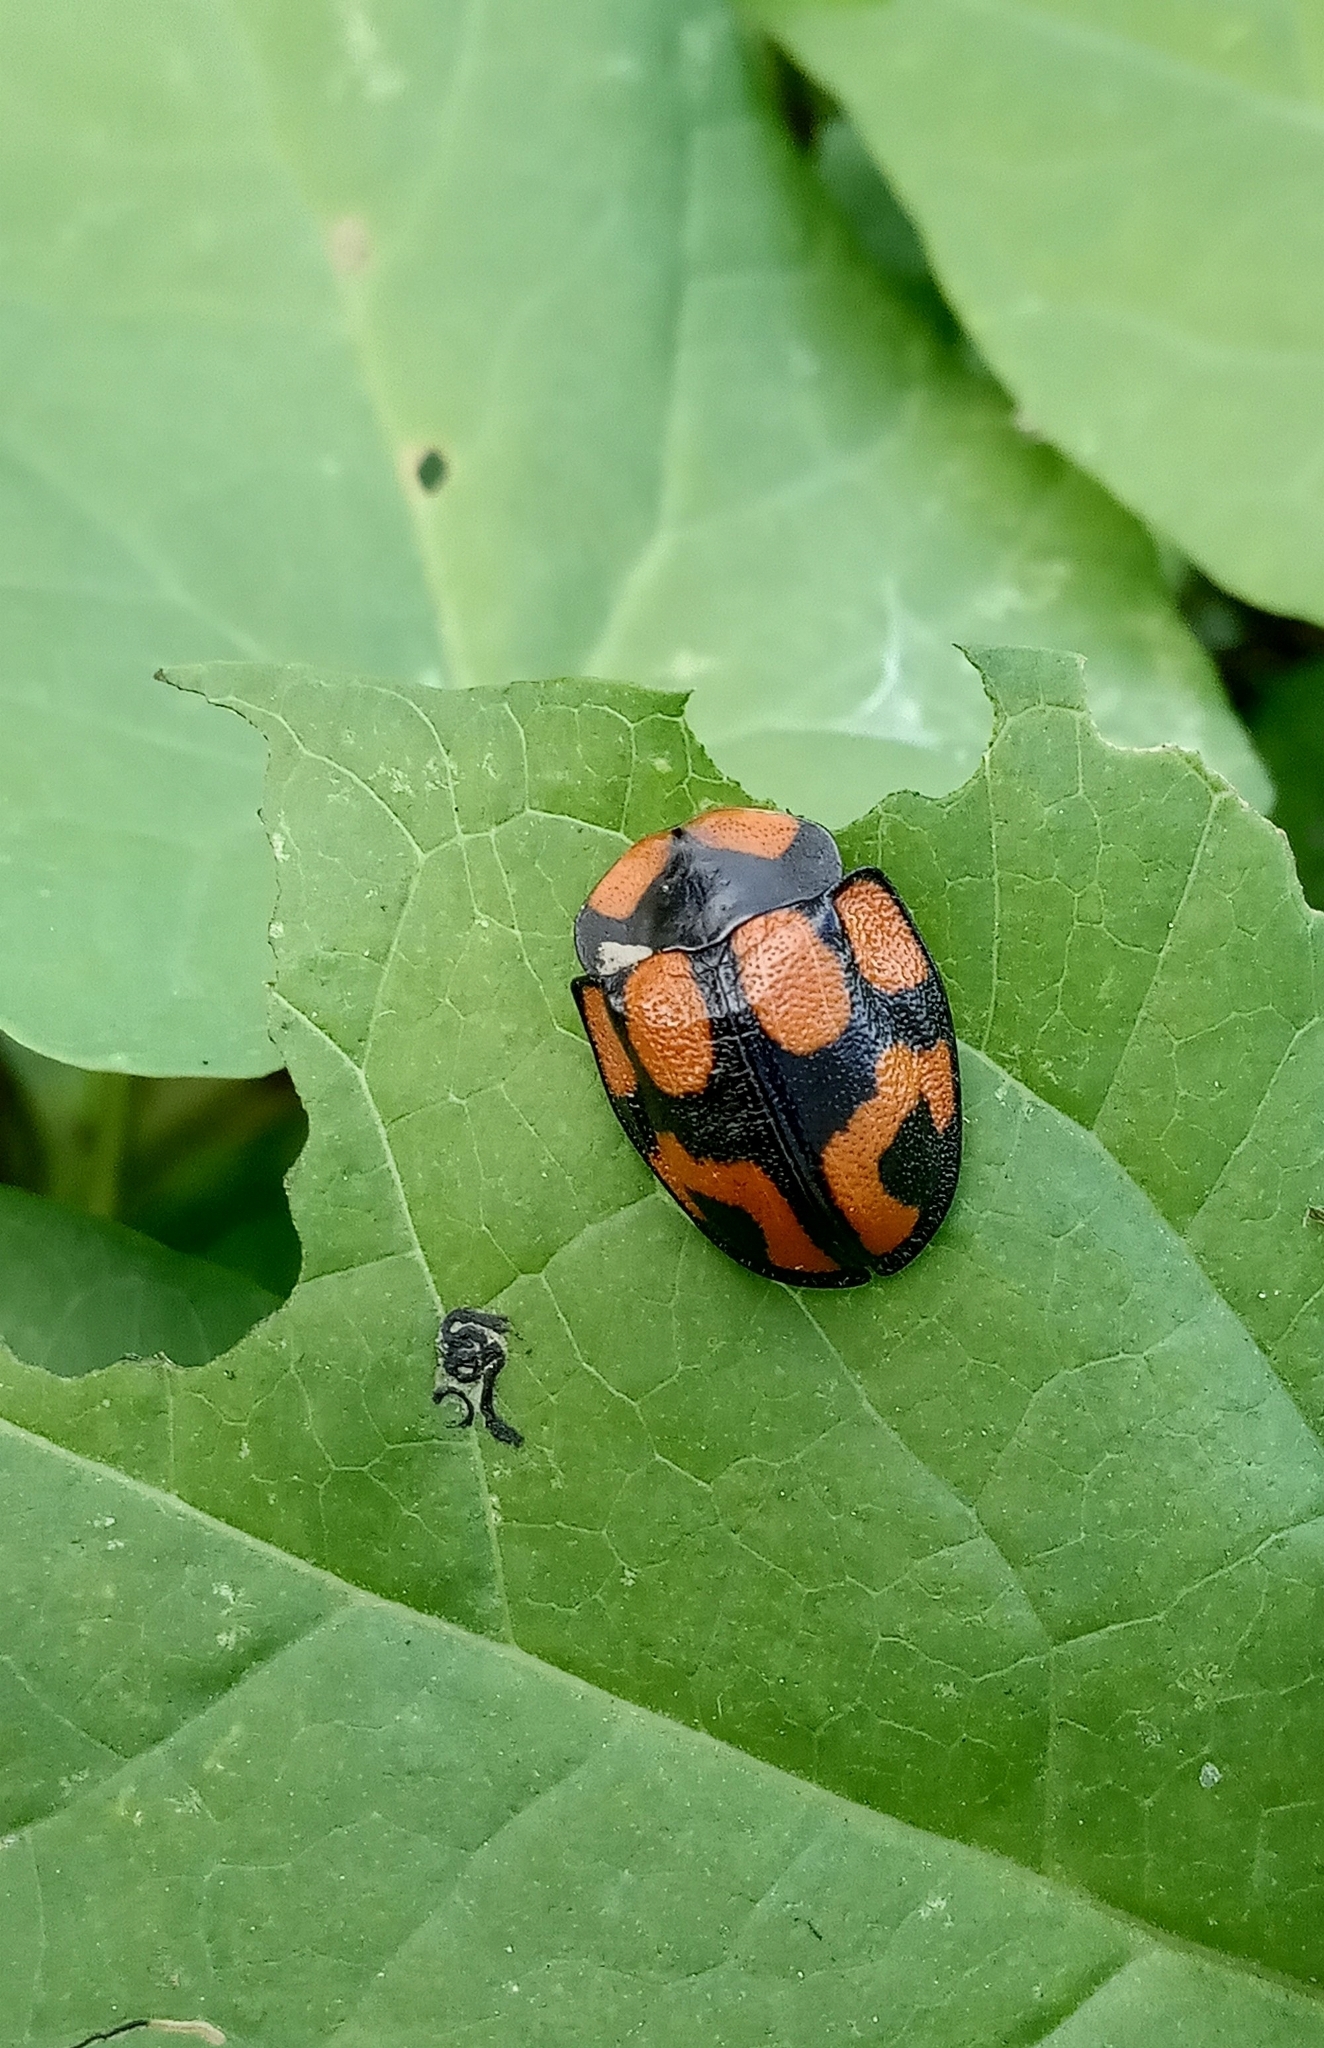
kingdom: Animalia
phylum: Arthropoda
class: Insecta
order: Coleoptera
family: Chrysomelidae
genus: Botanochara
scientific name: Botanochara angulata
